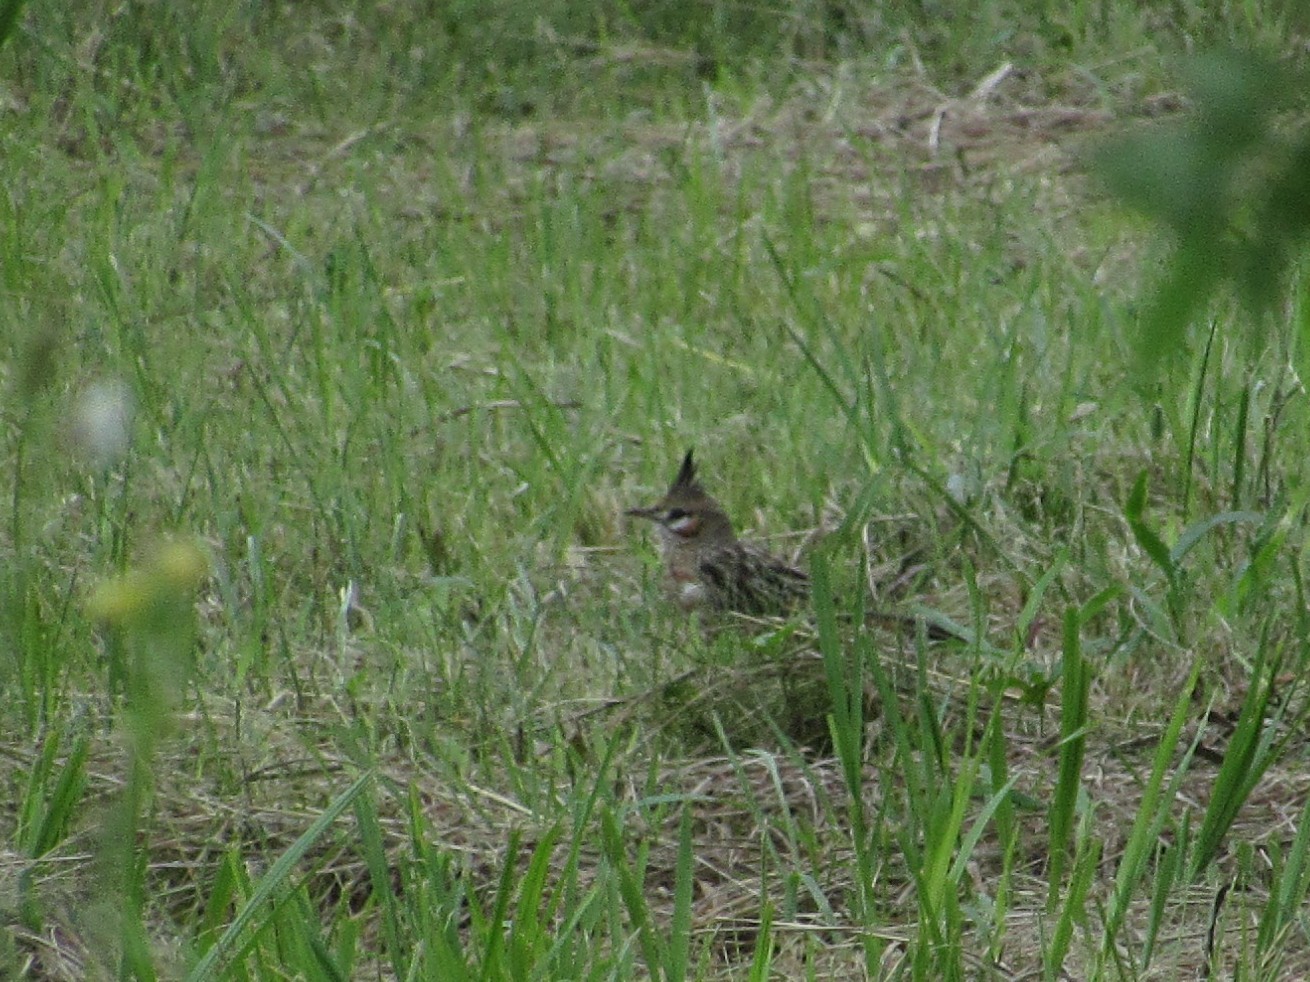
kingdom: Animalia
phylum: Chordata
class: Aves
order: Passeriformes
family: Furnariidae
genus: Coryphistera
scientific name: Coryphistera alaudina
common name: Lark-like brushrunner
